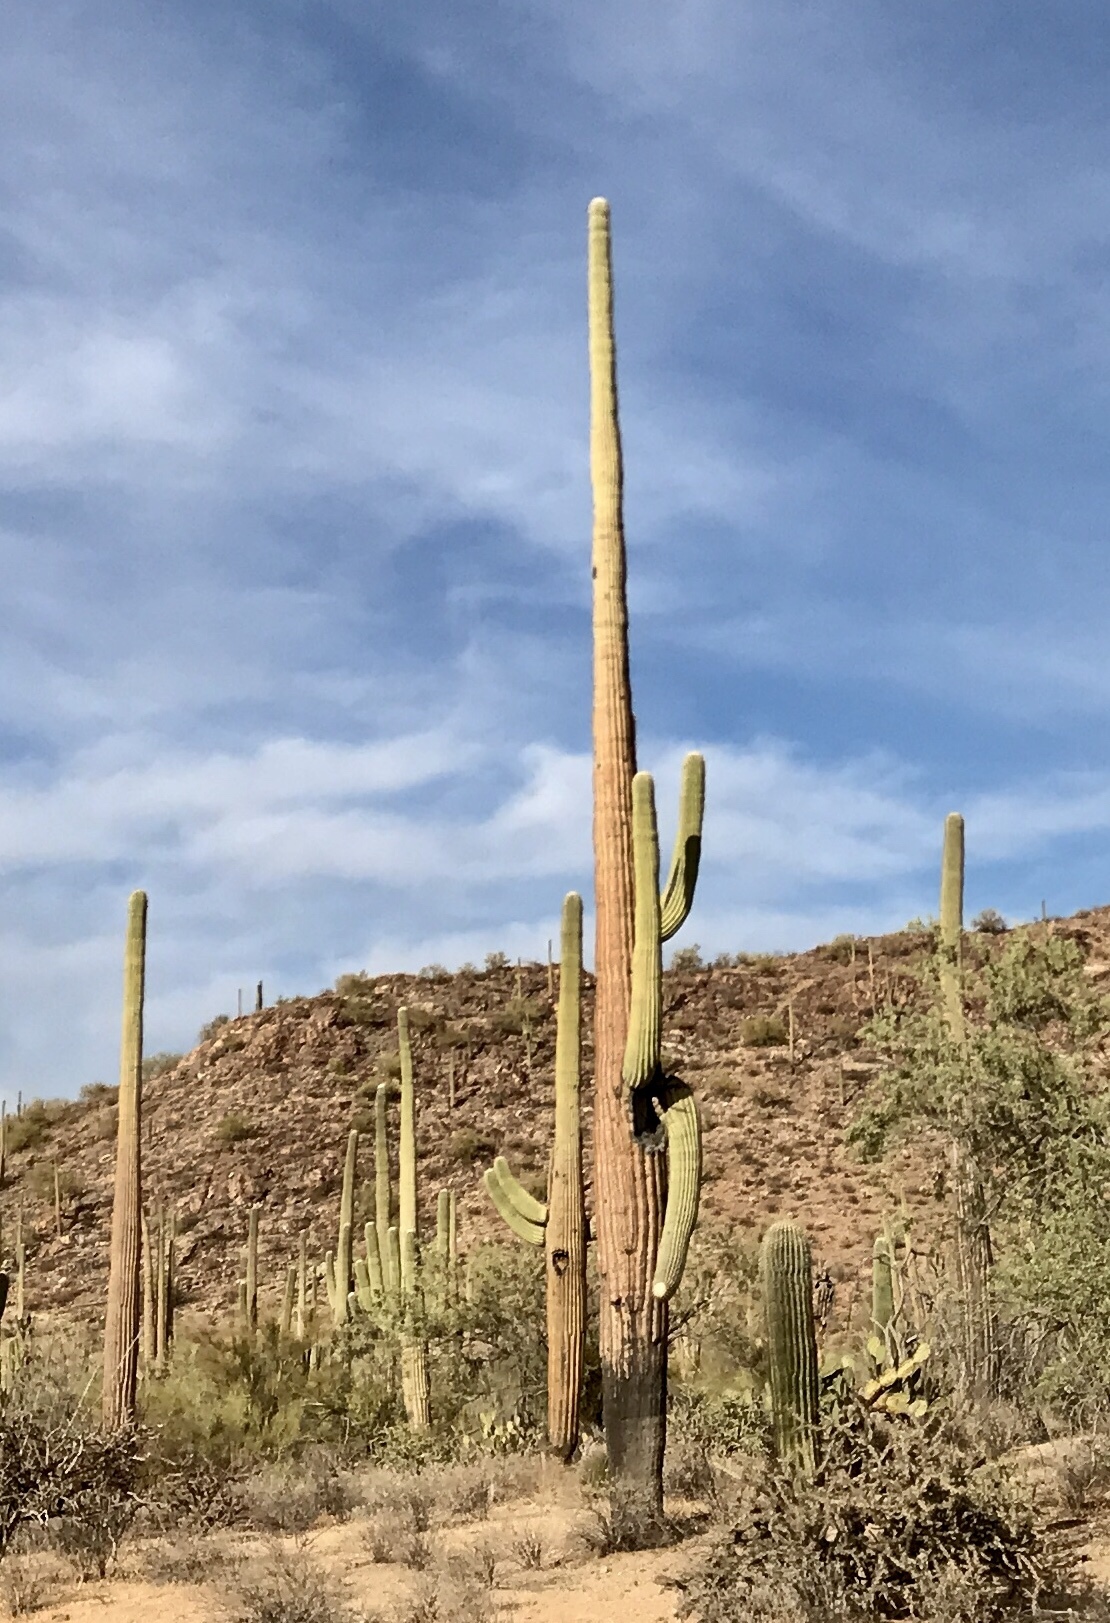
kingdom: Plantae
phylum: Tracheophyta
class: Magnoliopsida
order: Caryophyllales
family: Cactaceae
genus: Carnegiea
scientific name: Carnegiea gigantea
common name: Saguaro
